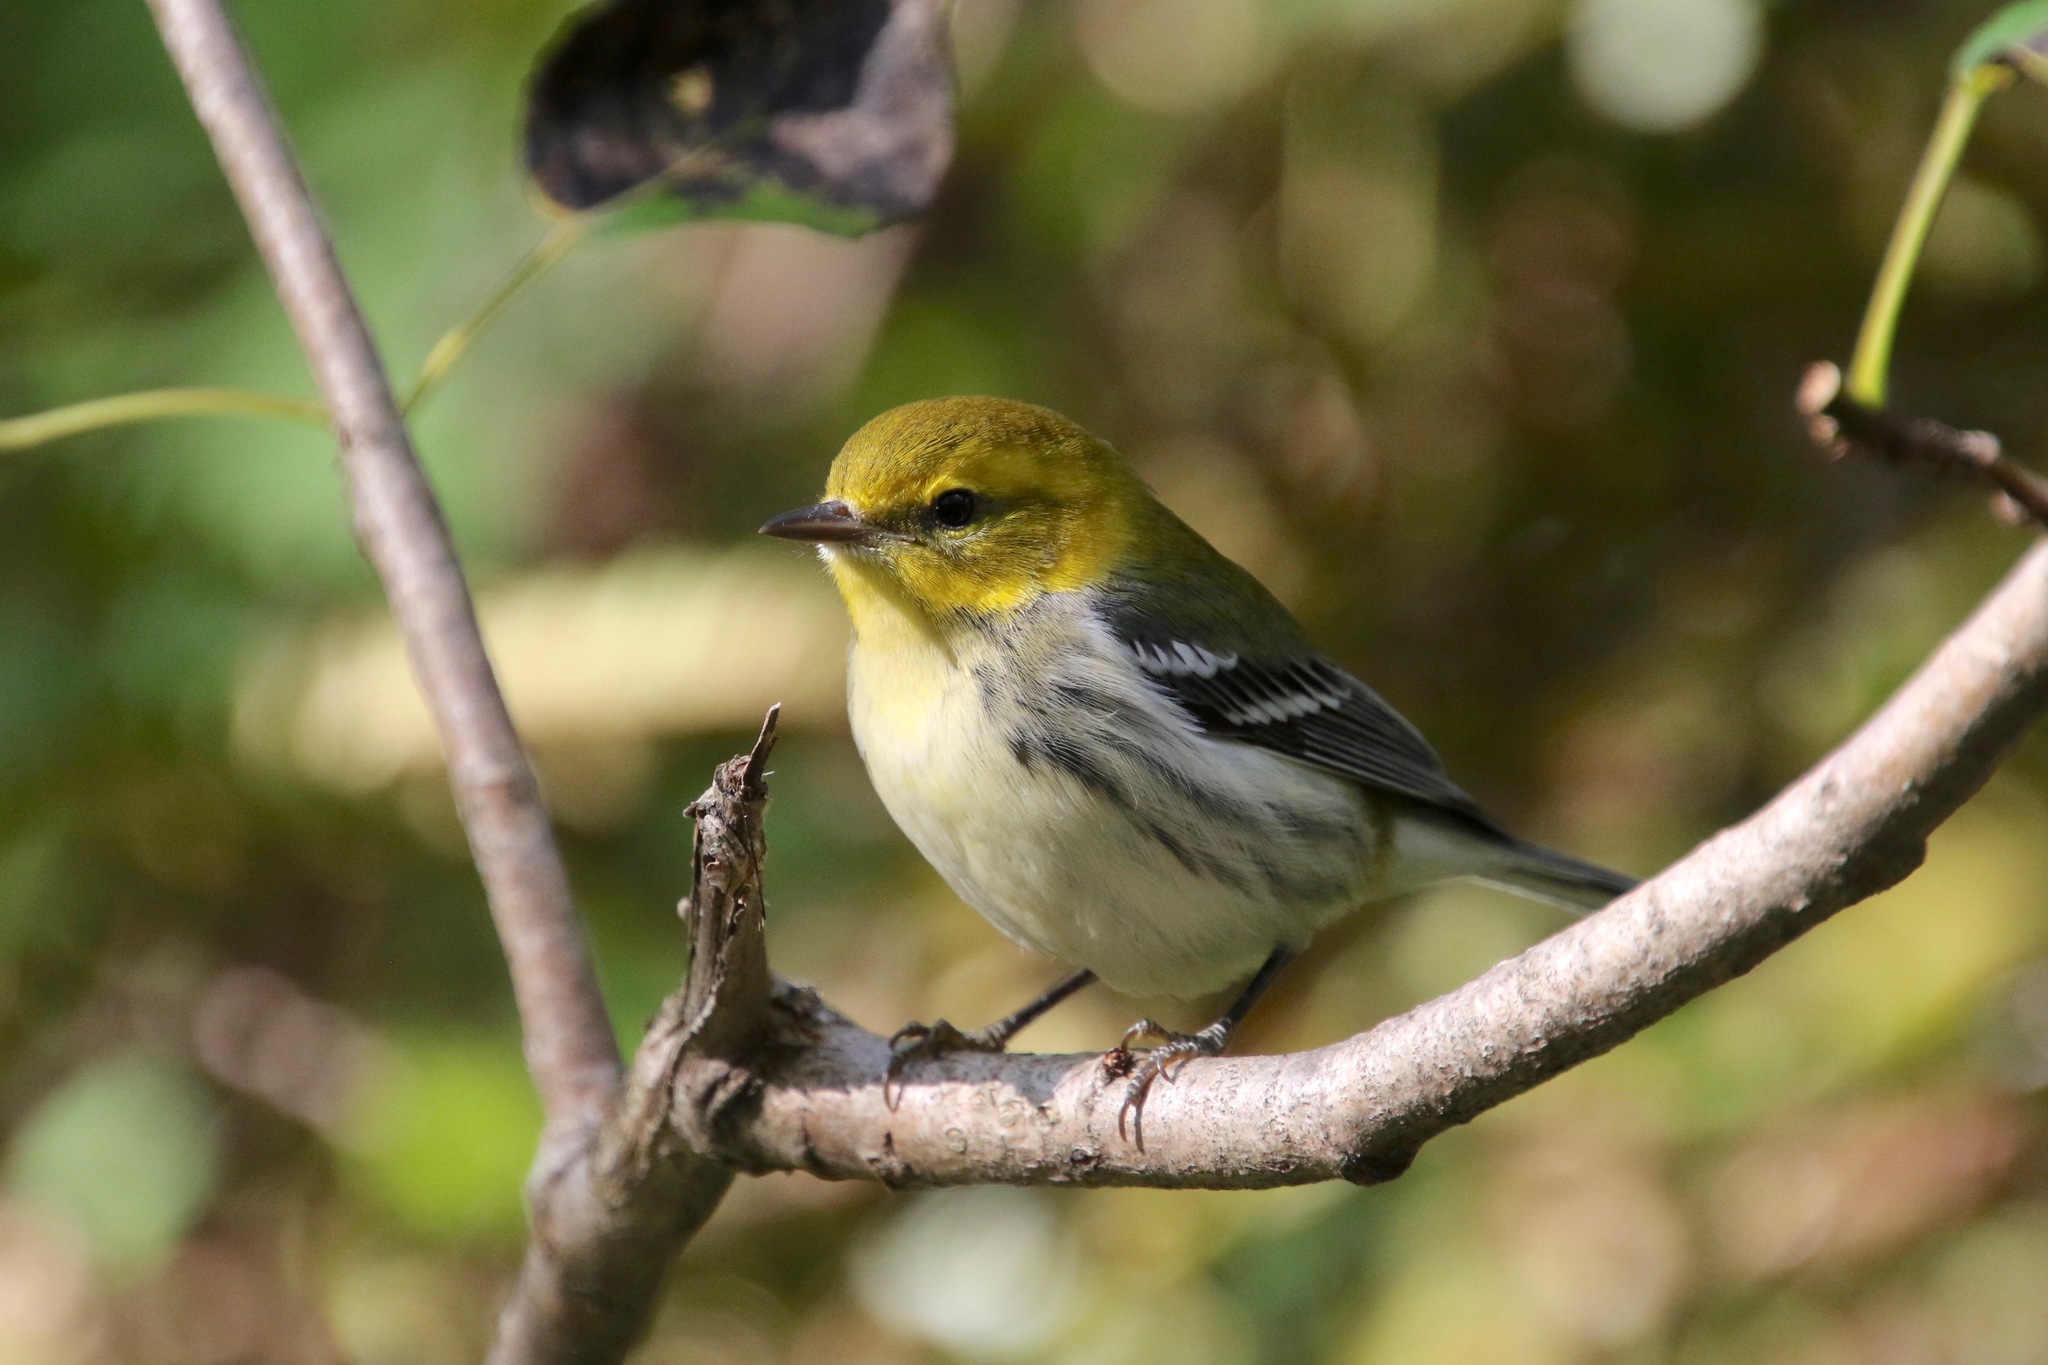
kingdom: Animalia
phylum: Chordata
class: Aves
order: Passeriformes
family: Parulidae
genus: Setophaga
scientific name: Setophaga virens
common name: Black-throated green warbler
